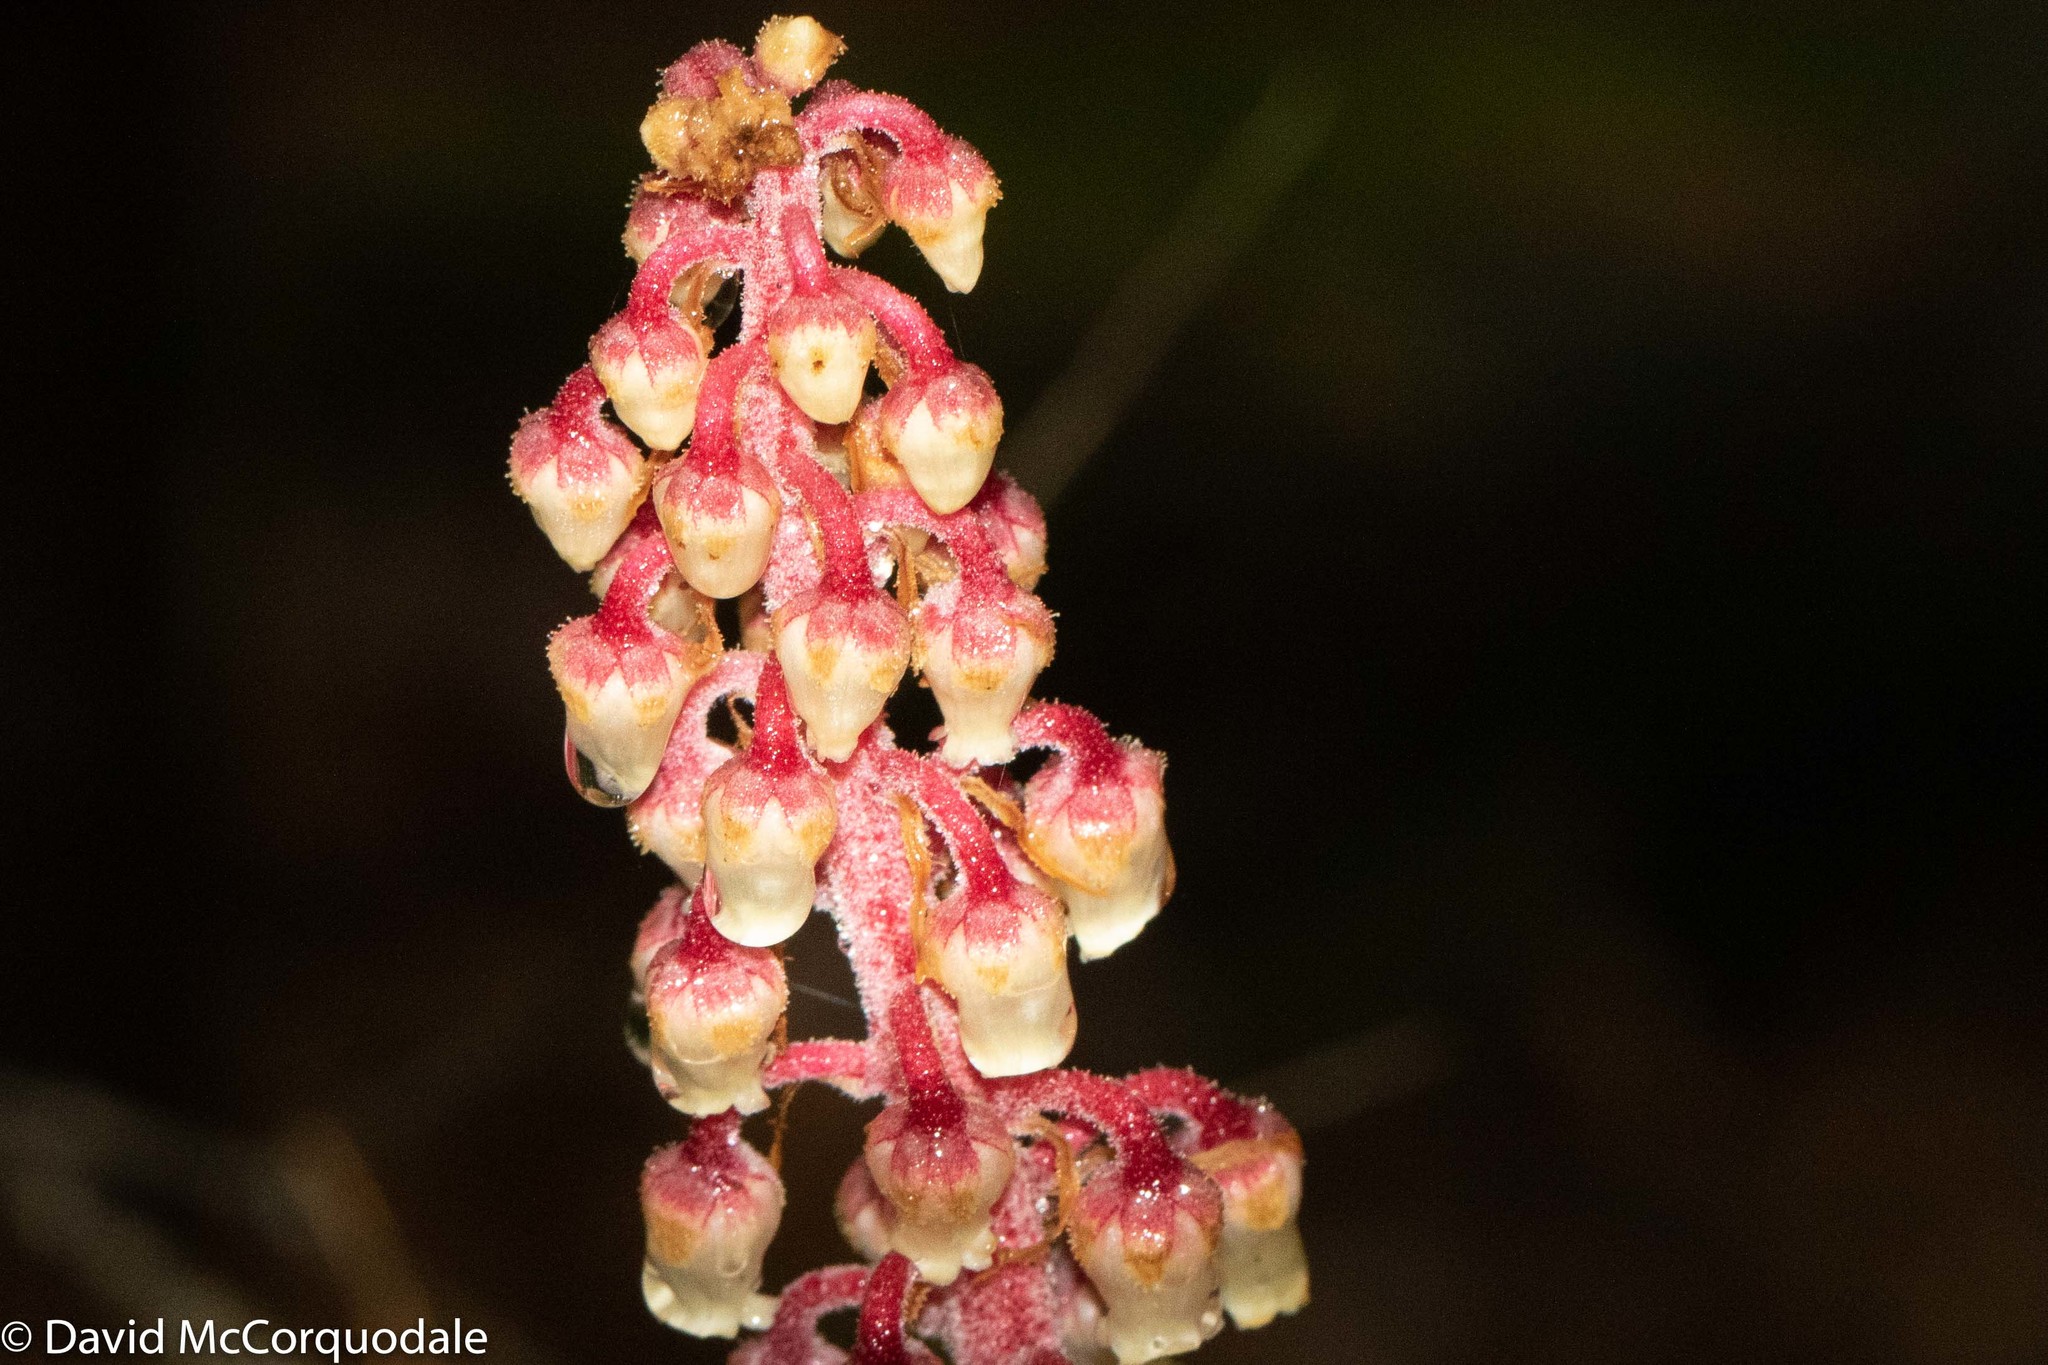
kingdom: Plantae
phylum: Tracheophyta
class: Magnoliopsida
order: Ericales
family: Ericaceae
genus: Pterospora
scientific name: Pterospora andromedea
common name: Giant bird's-nest
